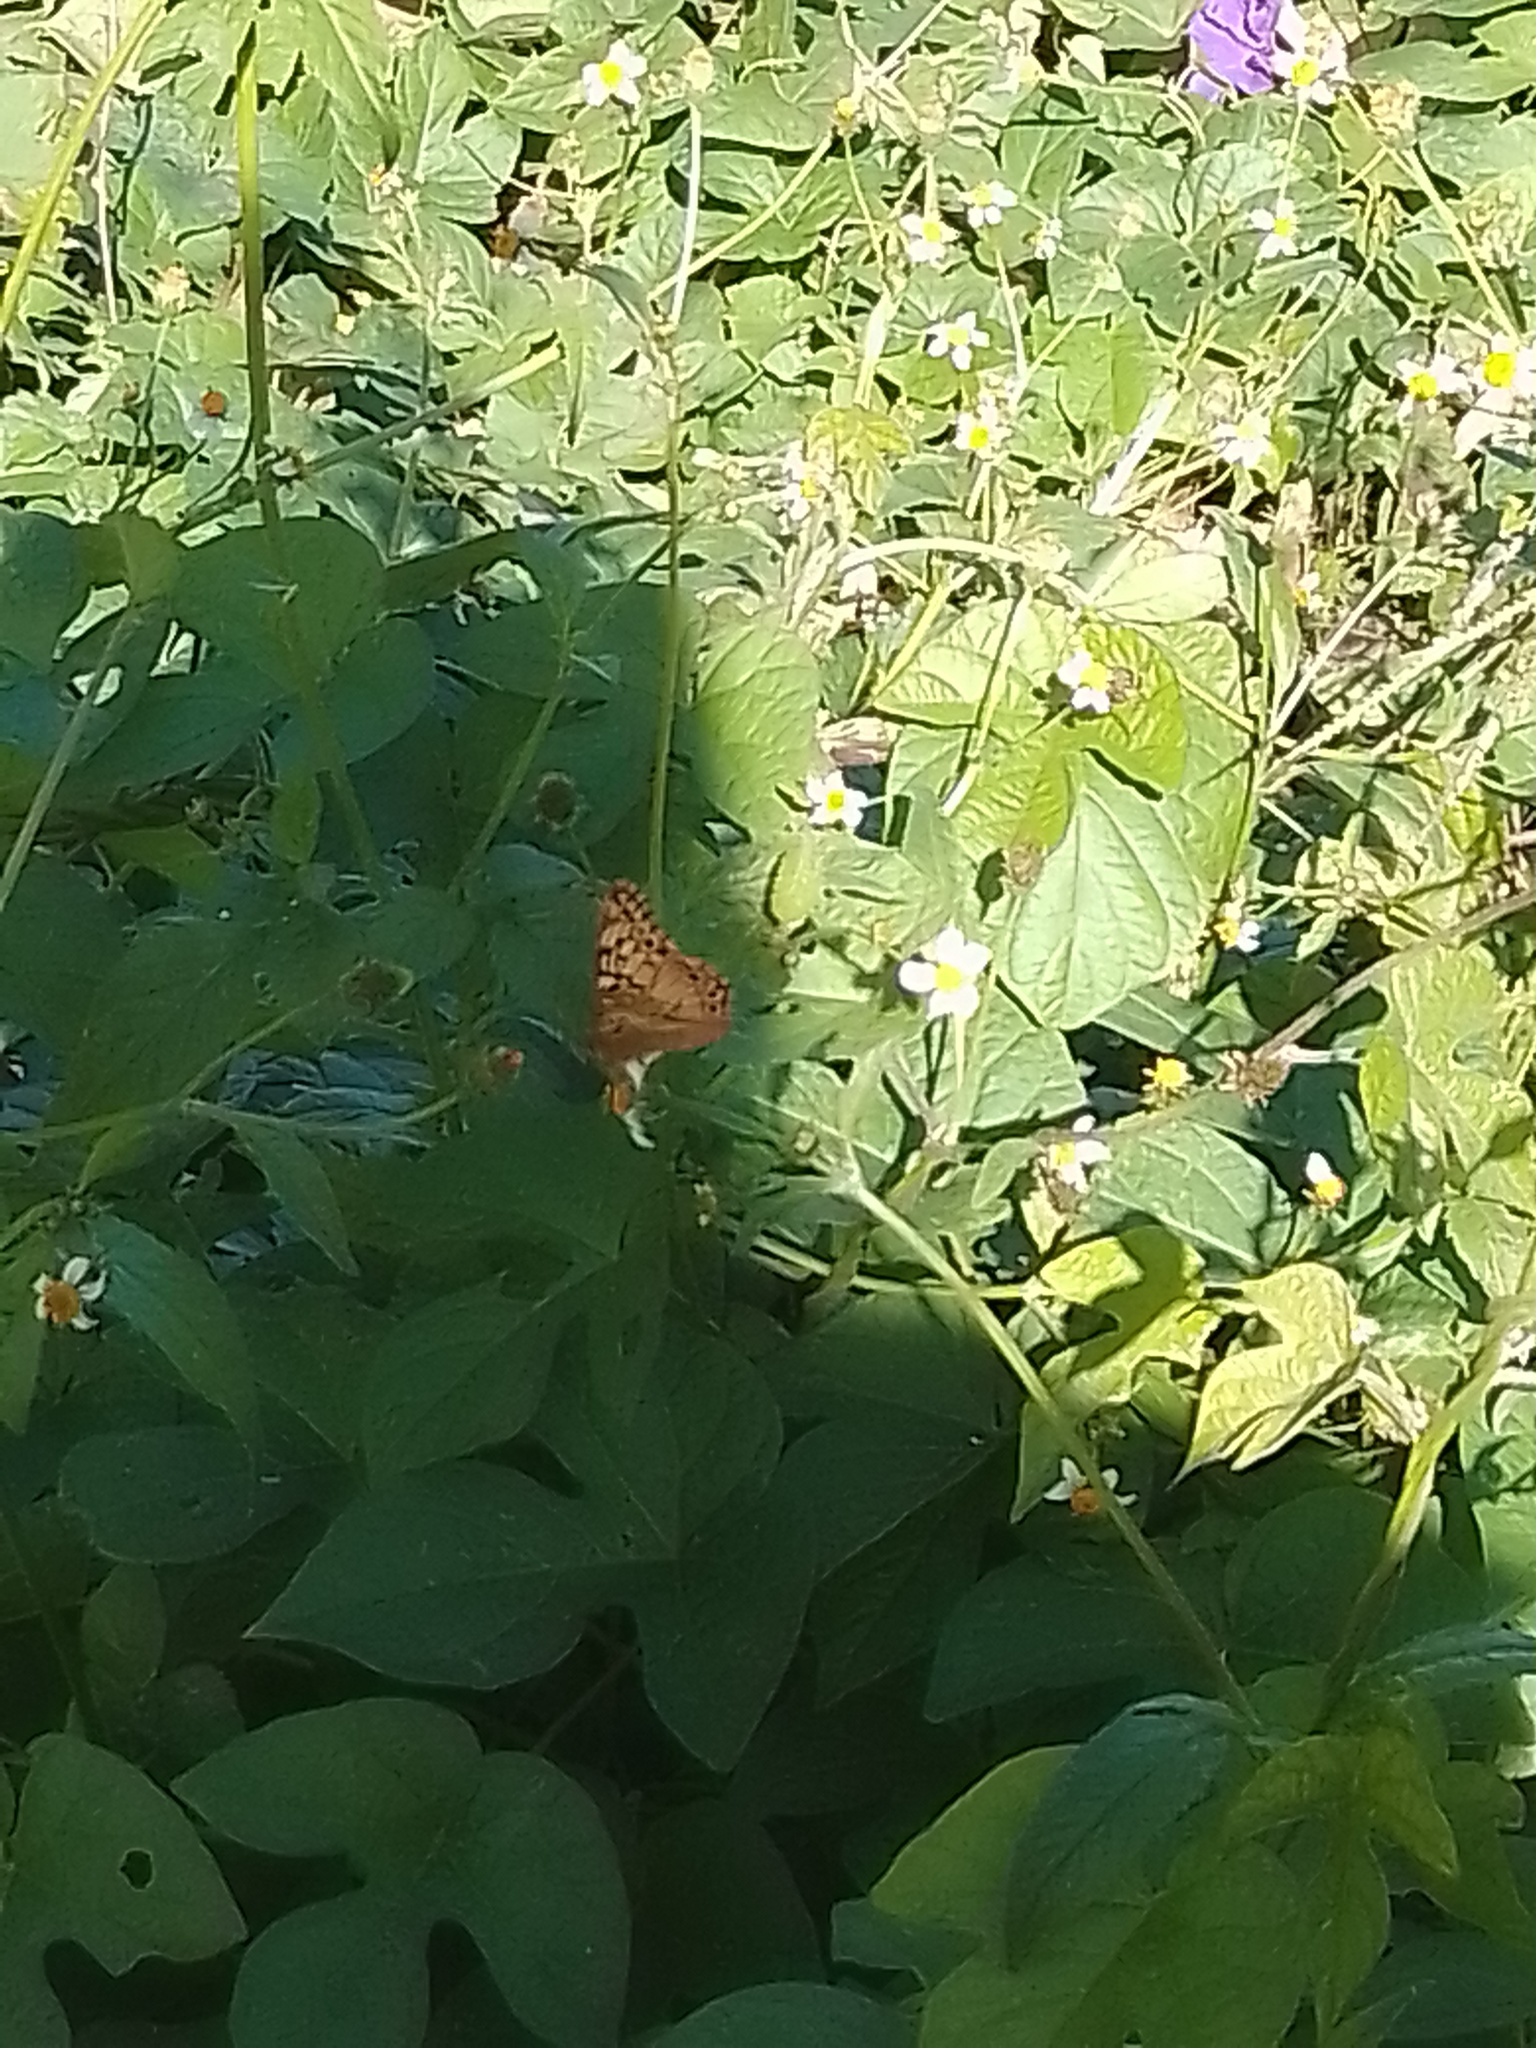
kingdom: Animalia
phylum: Arthropoda
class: Insecta
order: Lepidoptera
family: Nymphalidae
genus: Euptoieta
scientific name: Euptoieta hortensia
